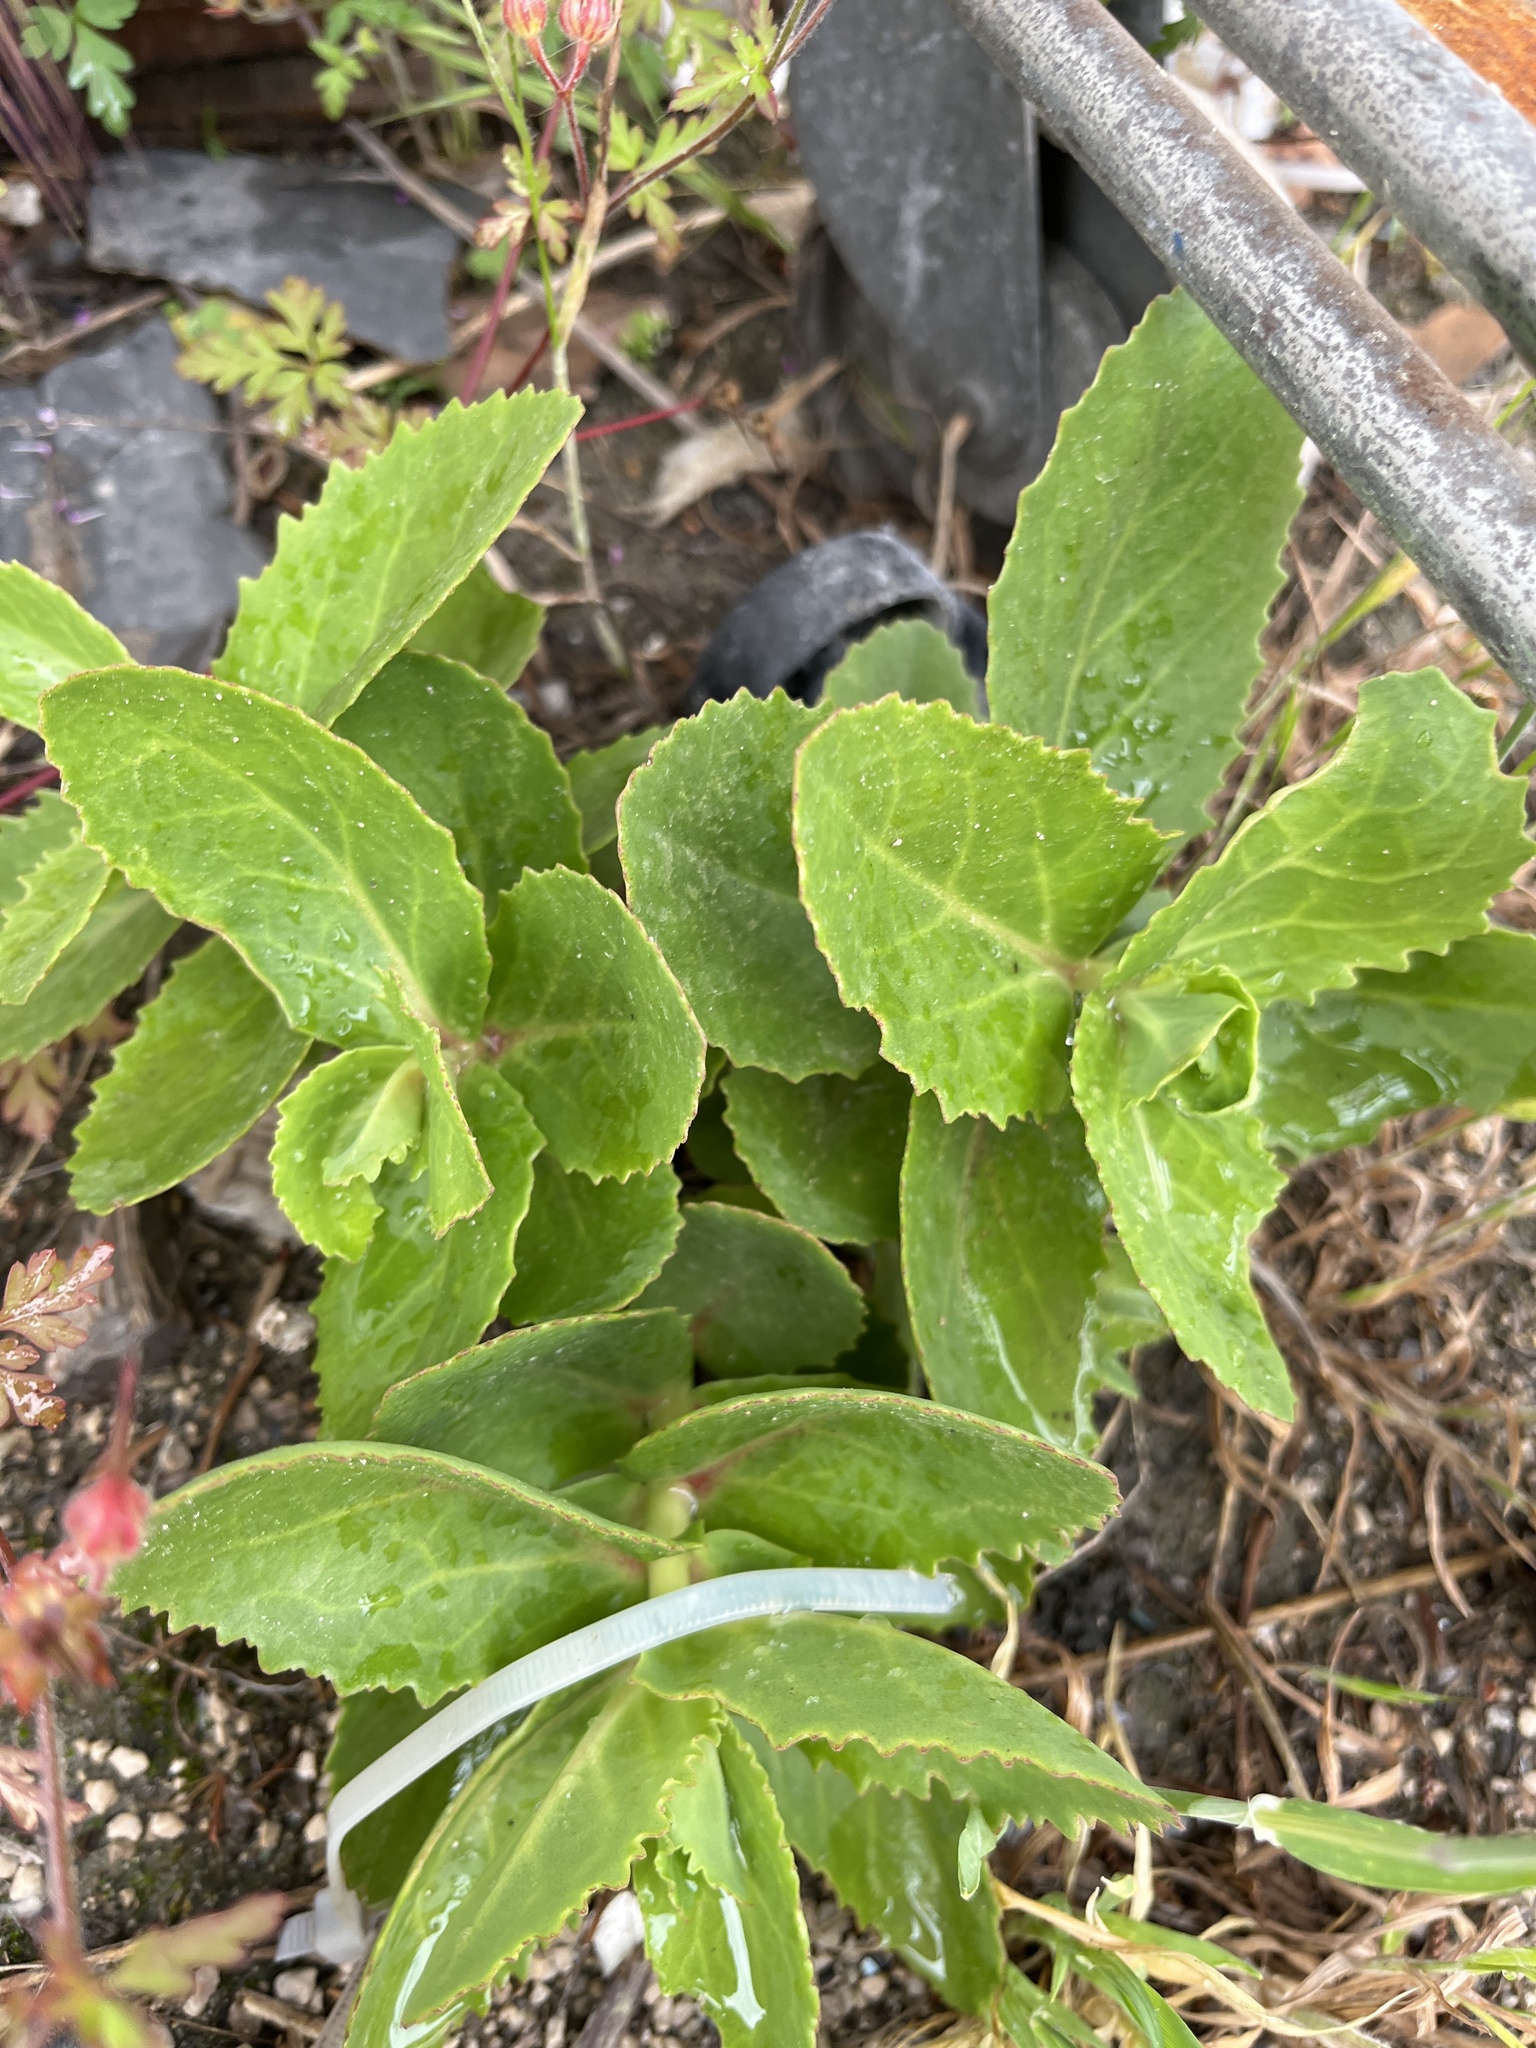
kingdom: Plantae
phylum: Tracheophyta
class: Magnoliopsida
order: Saxifragales
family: Crassulaceae
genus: Hylotelephium
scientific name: Hylotelephium maximum
